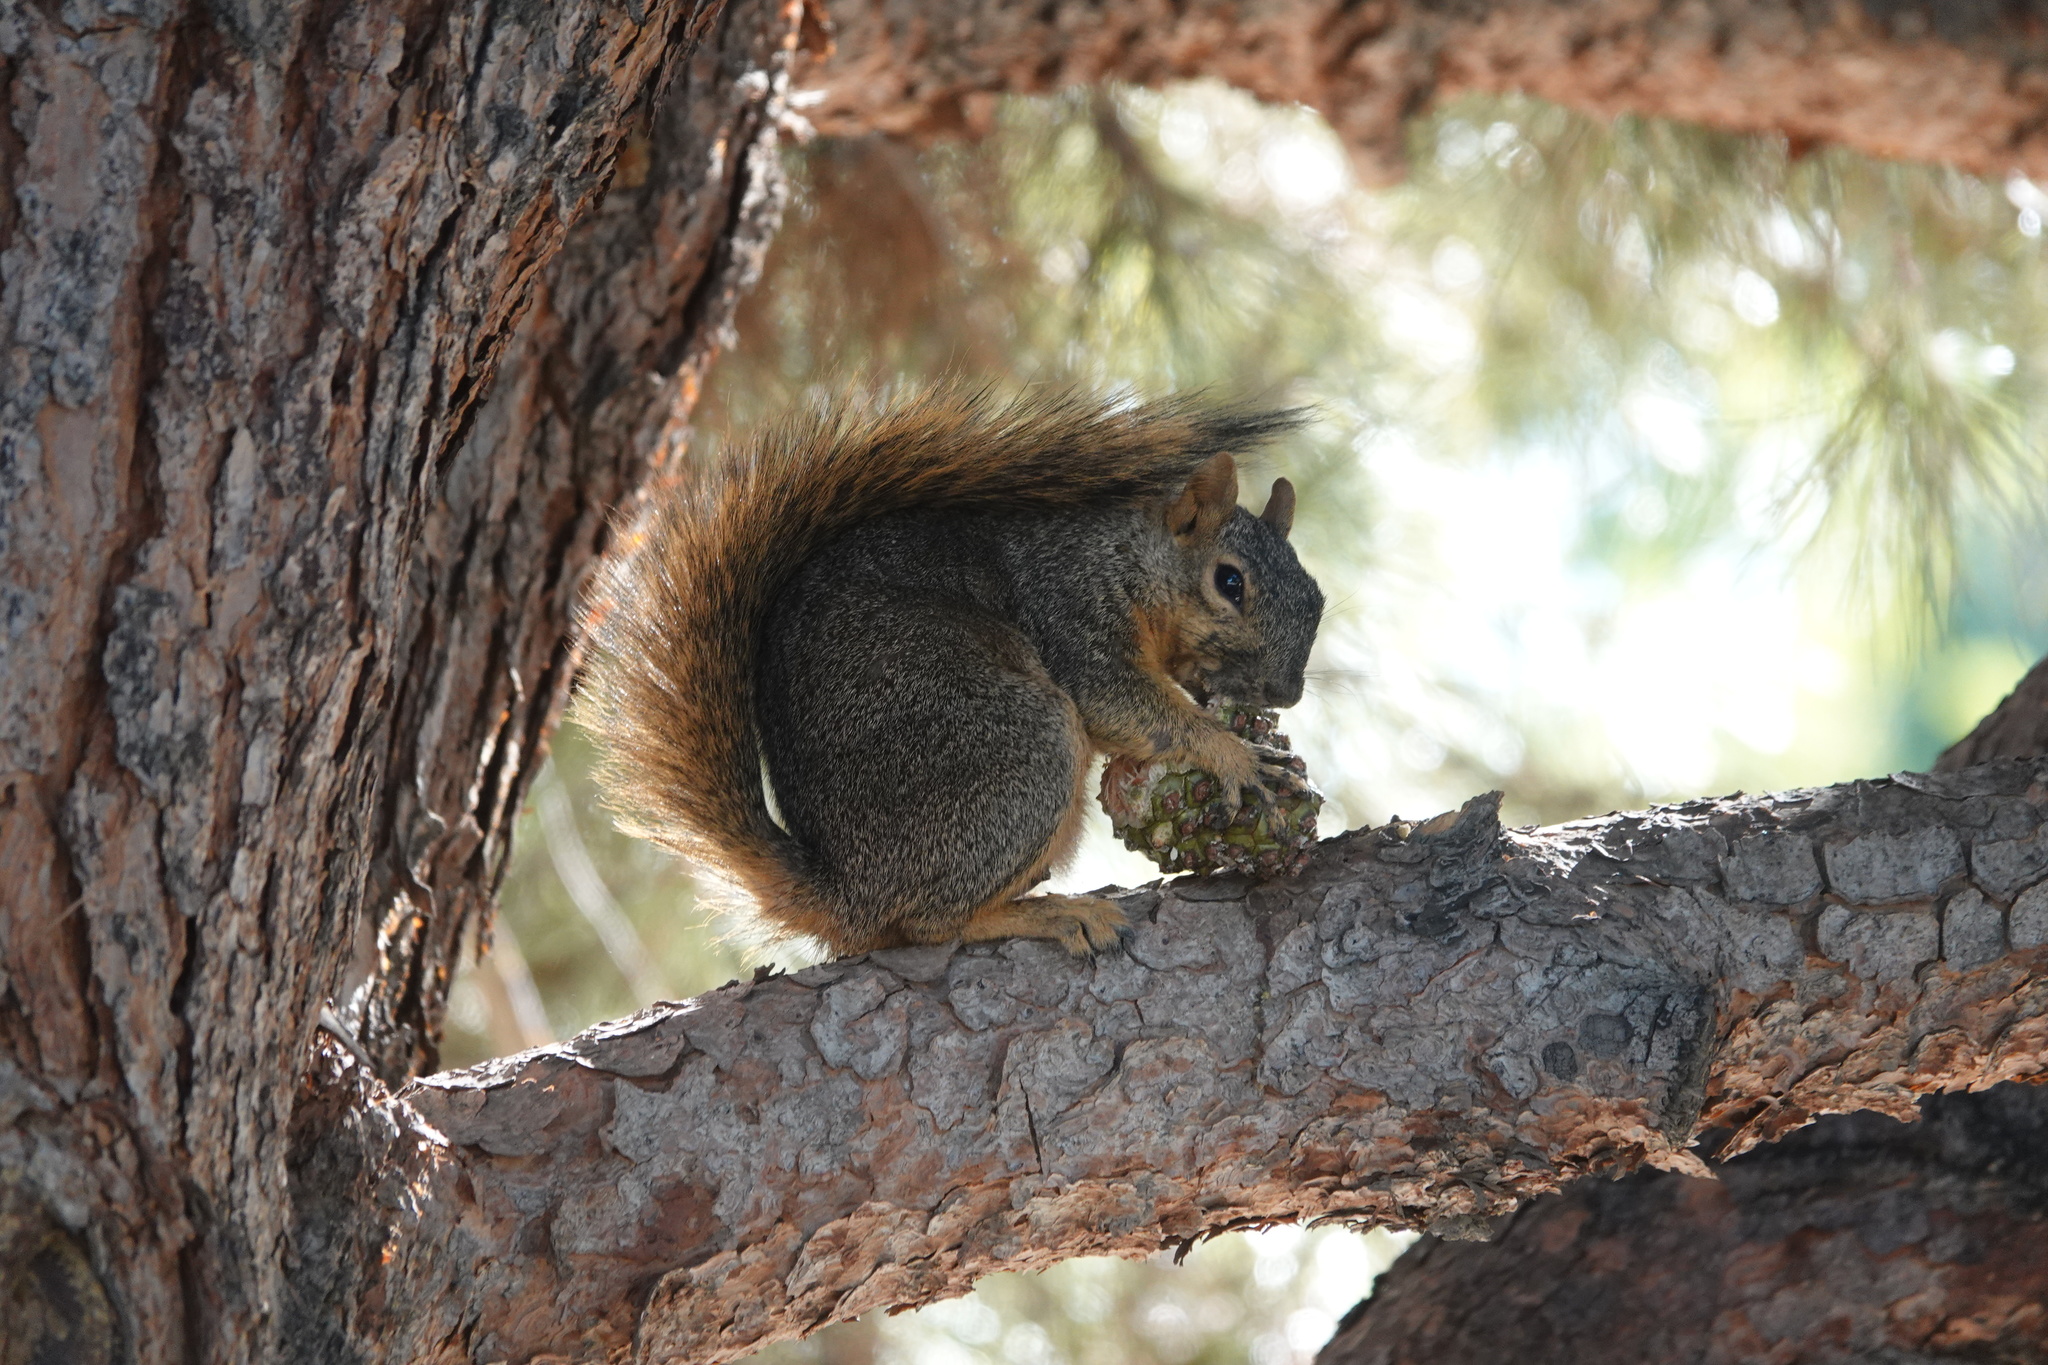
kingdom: Animalia
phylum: Chordata
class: Mammalia
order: Rodentia
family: Sciuridae
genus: Sciurus
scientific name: Sciurus niger
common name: Fox squirrel
